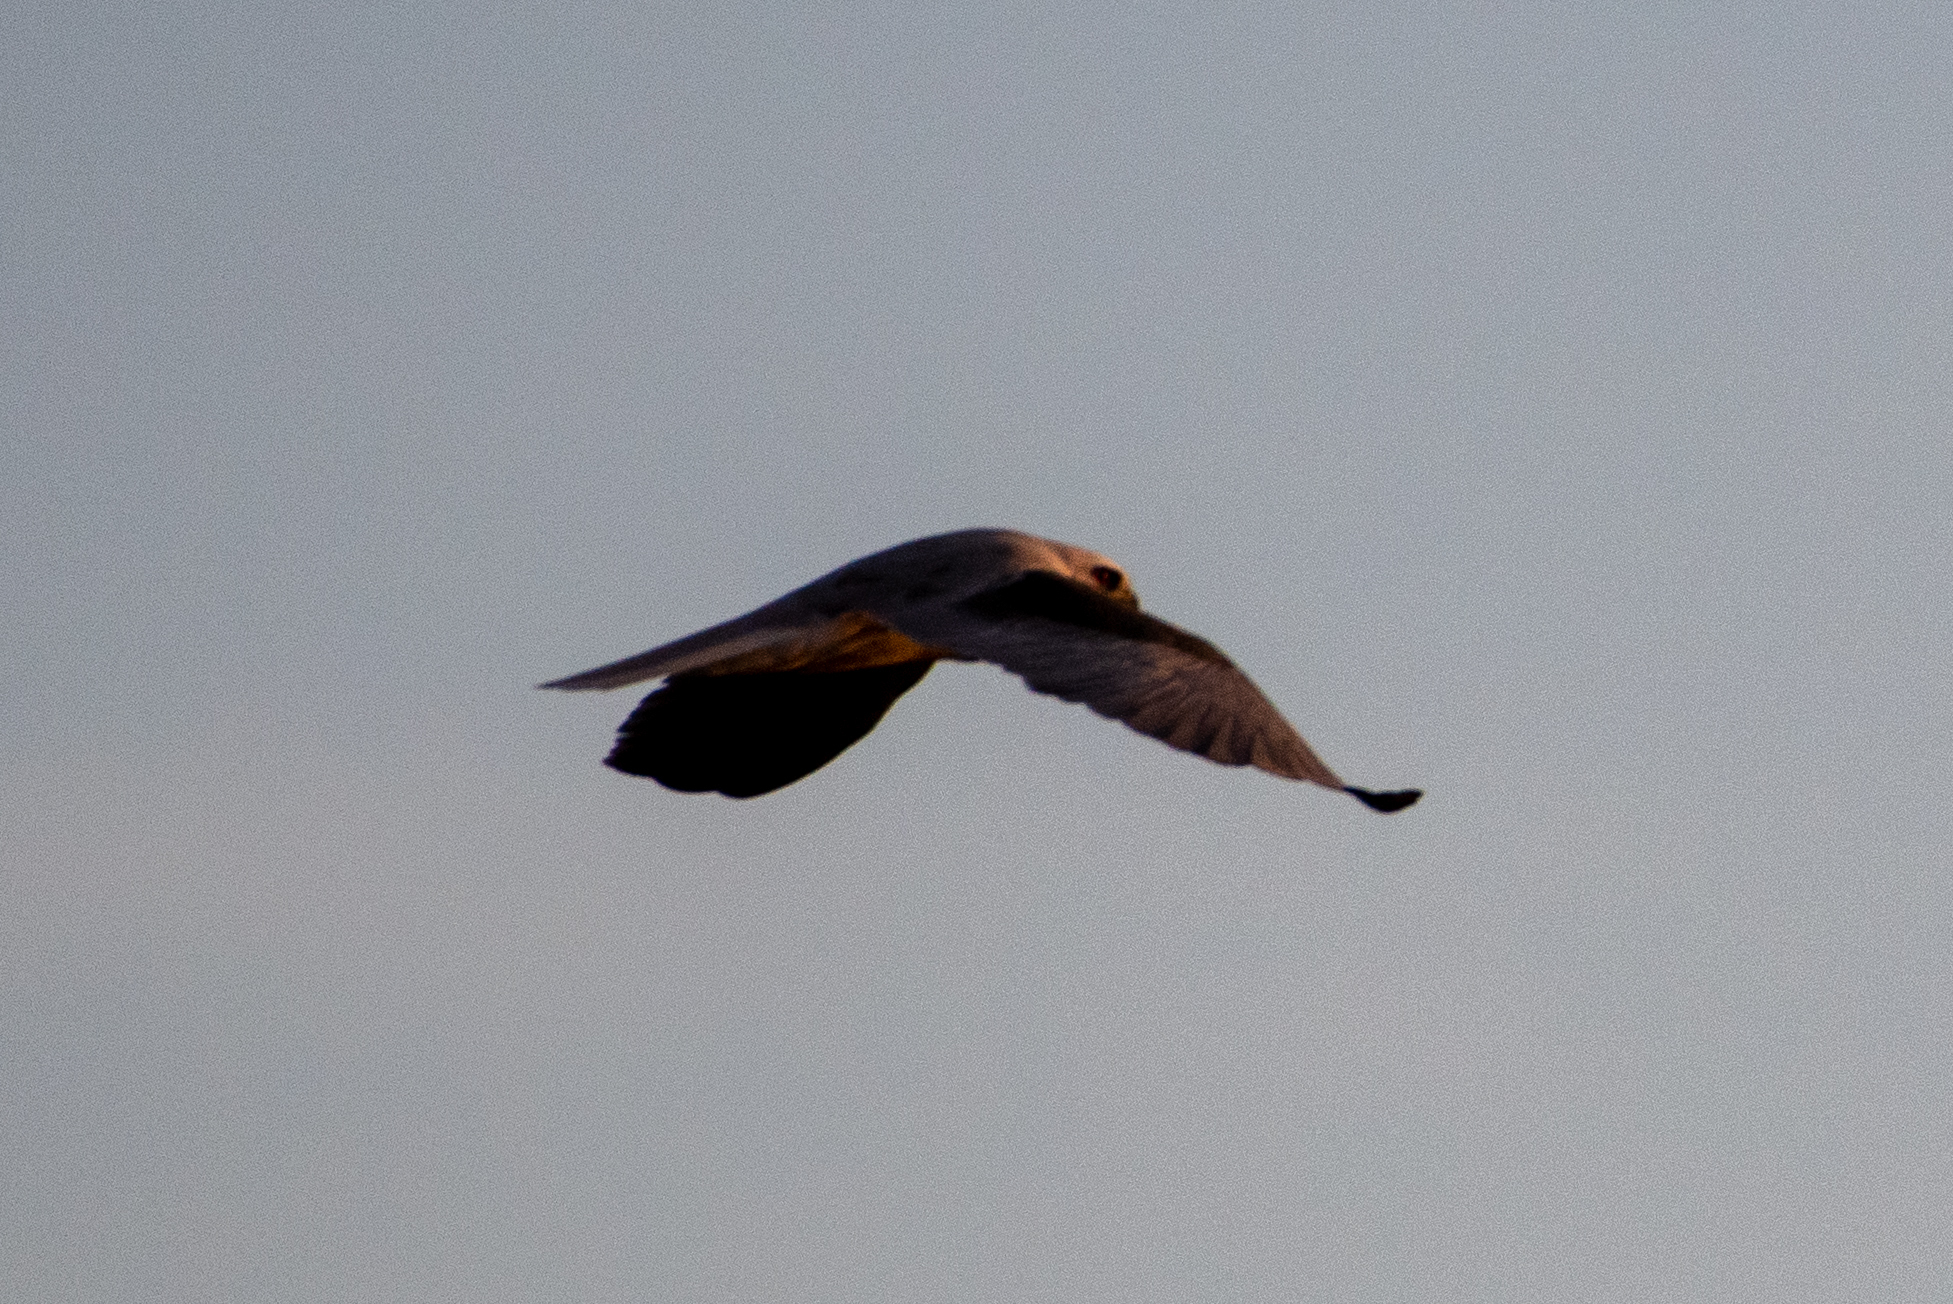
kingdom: Animalia
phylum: Chordata
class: Aves
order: Accipitriformes
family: Accipitridae
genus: Elanus
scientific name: Elanus leucurus
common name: White-tailed kite
